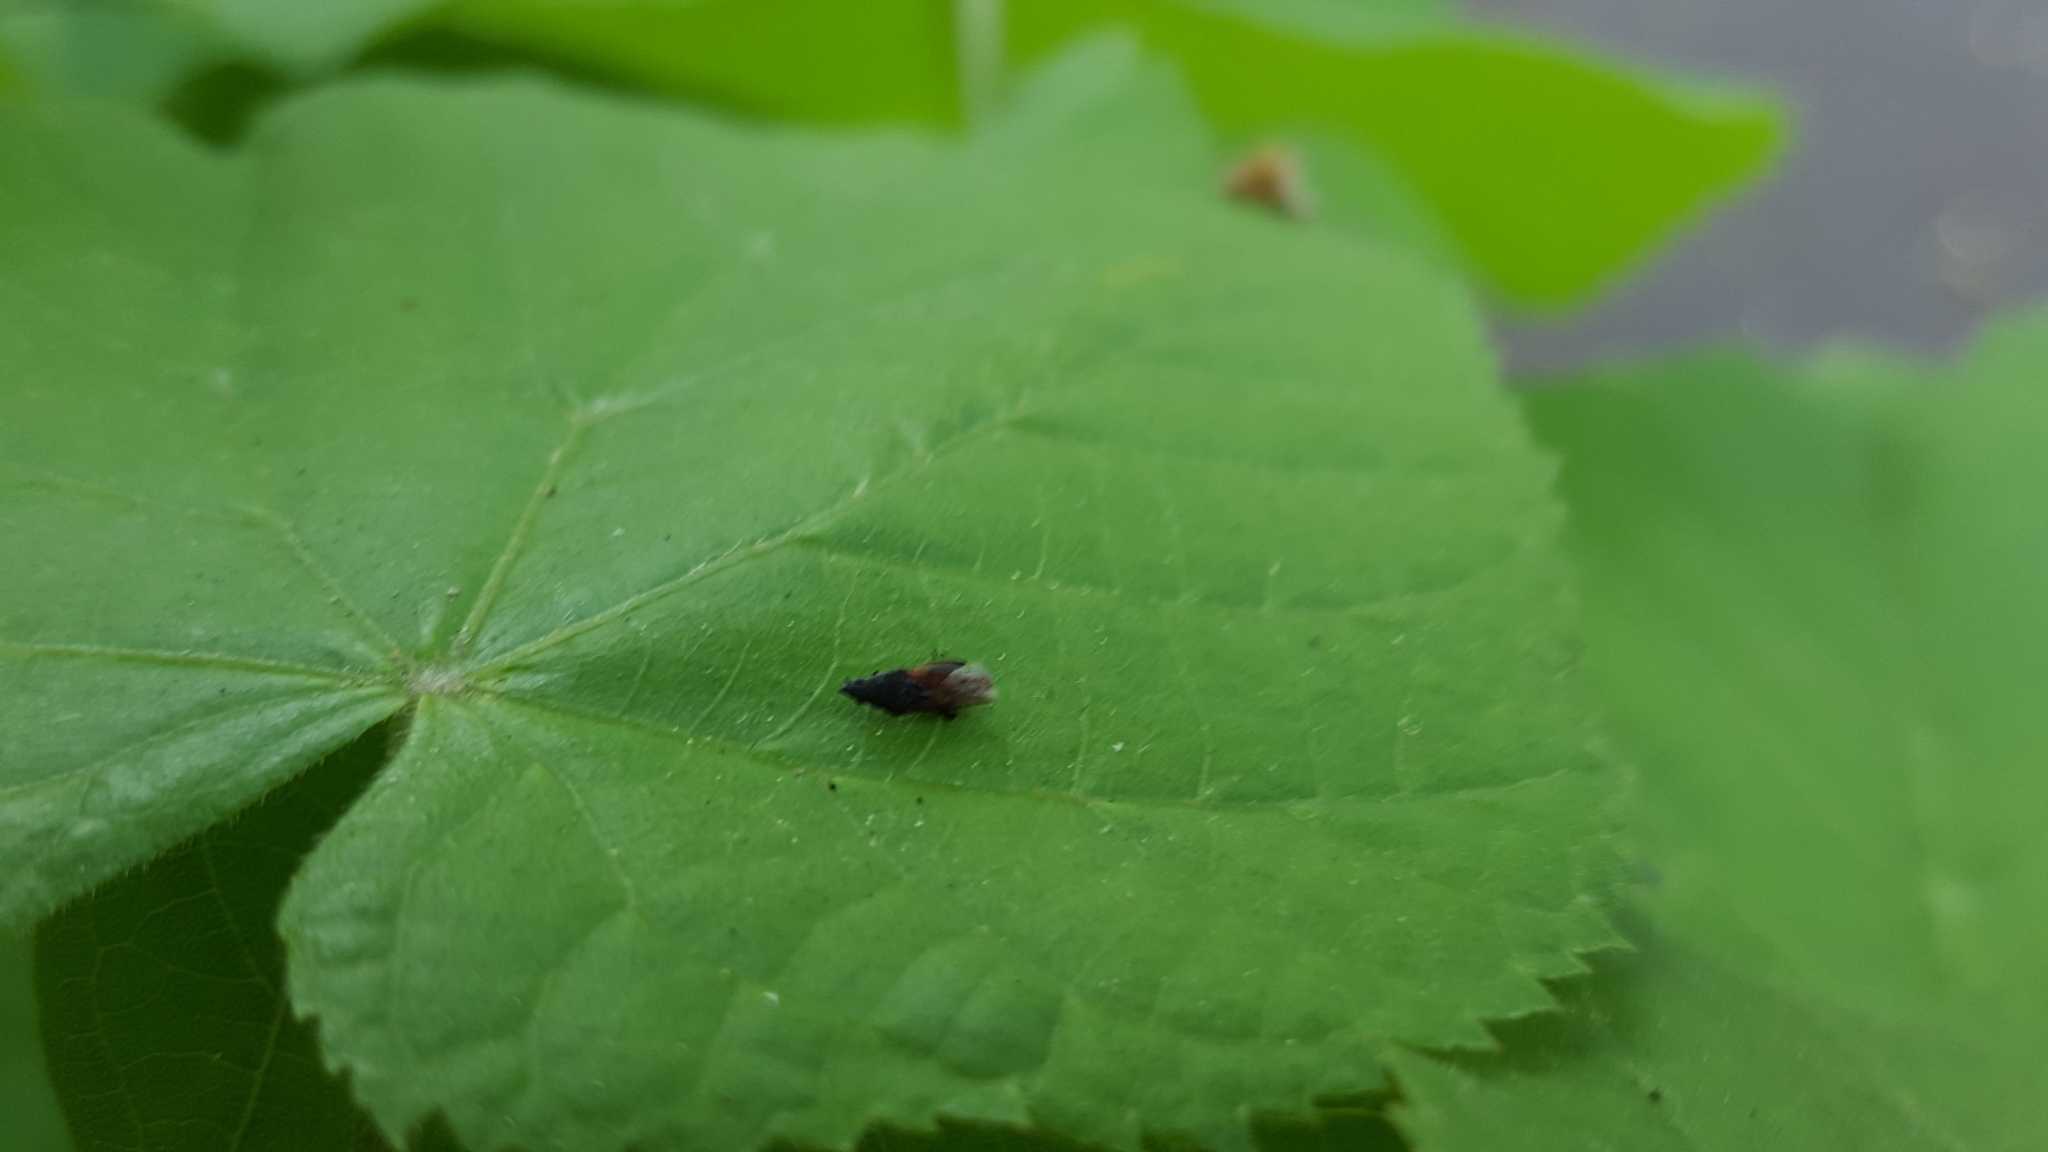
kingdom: Animalia
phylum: Arthropoda
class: Insecta
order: Hemiptera
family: Oxycarenidae
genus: Oxycarenus
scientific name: Oxycarenus lavaterae
